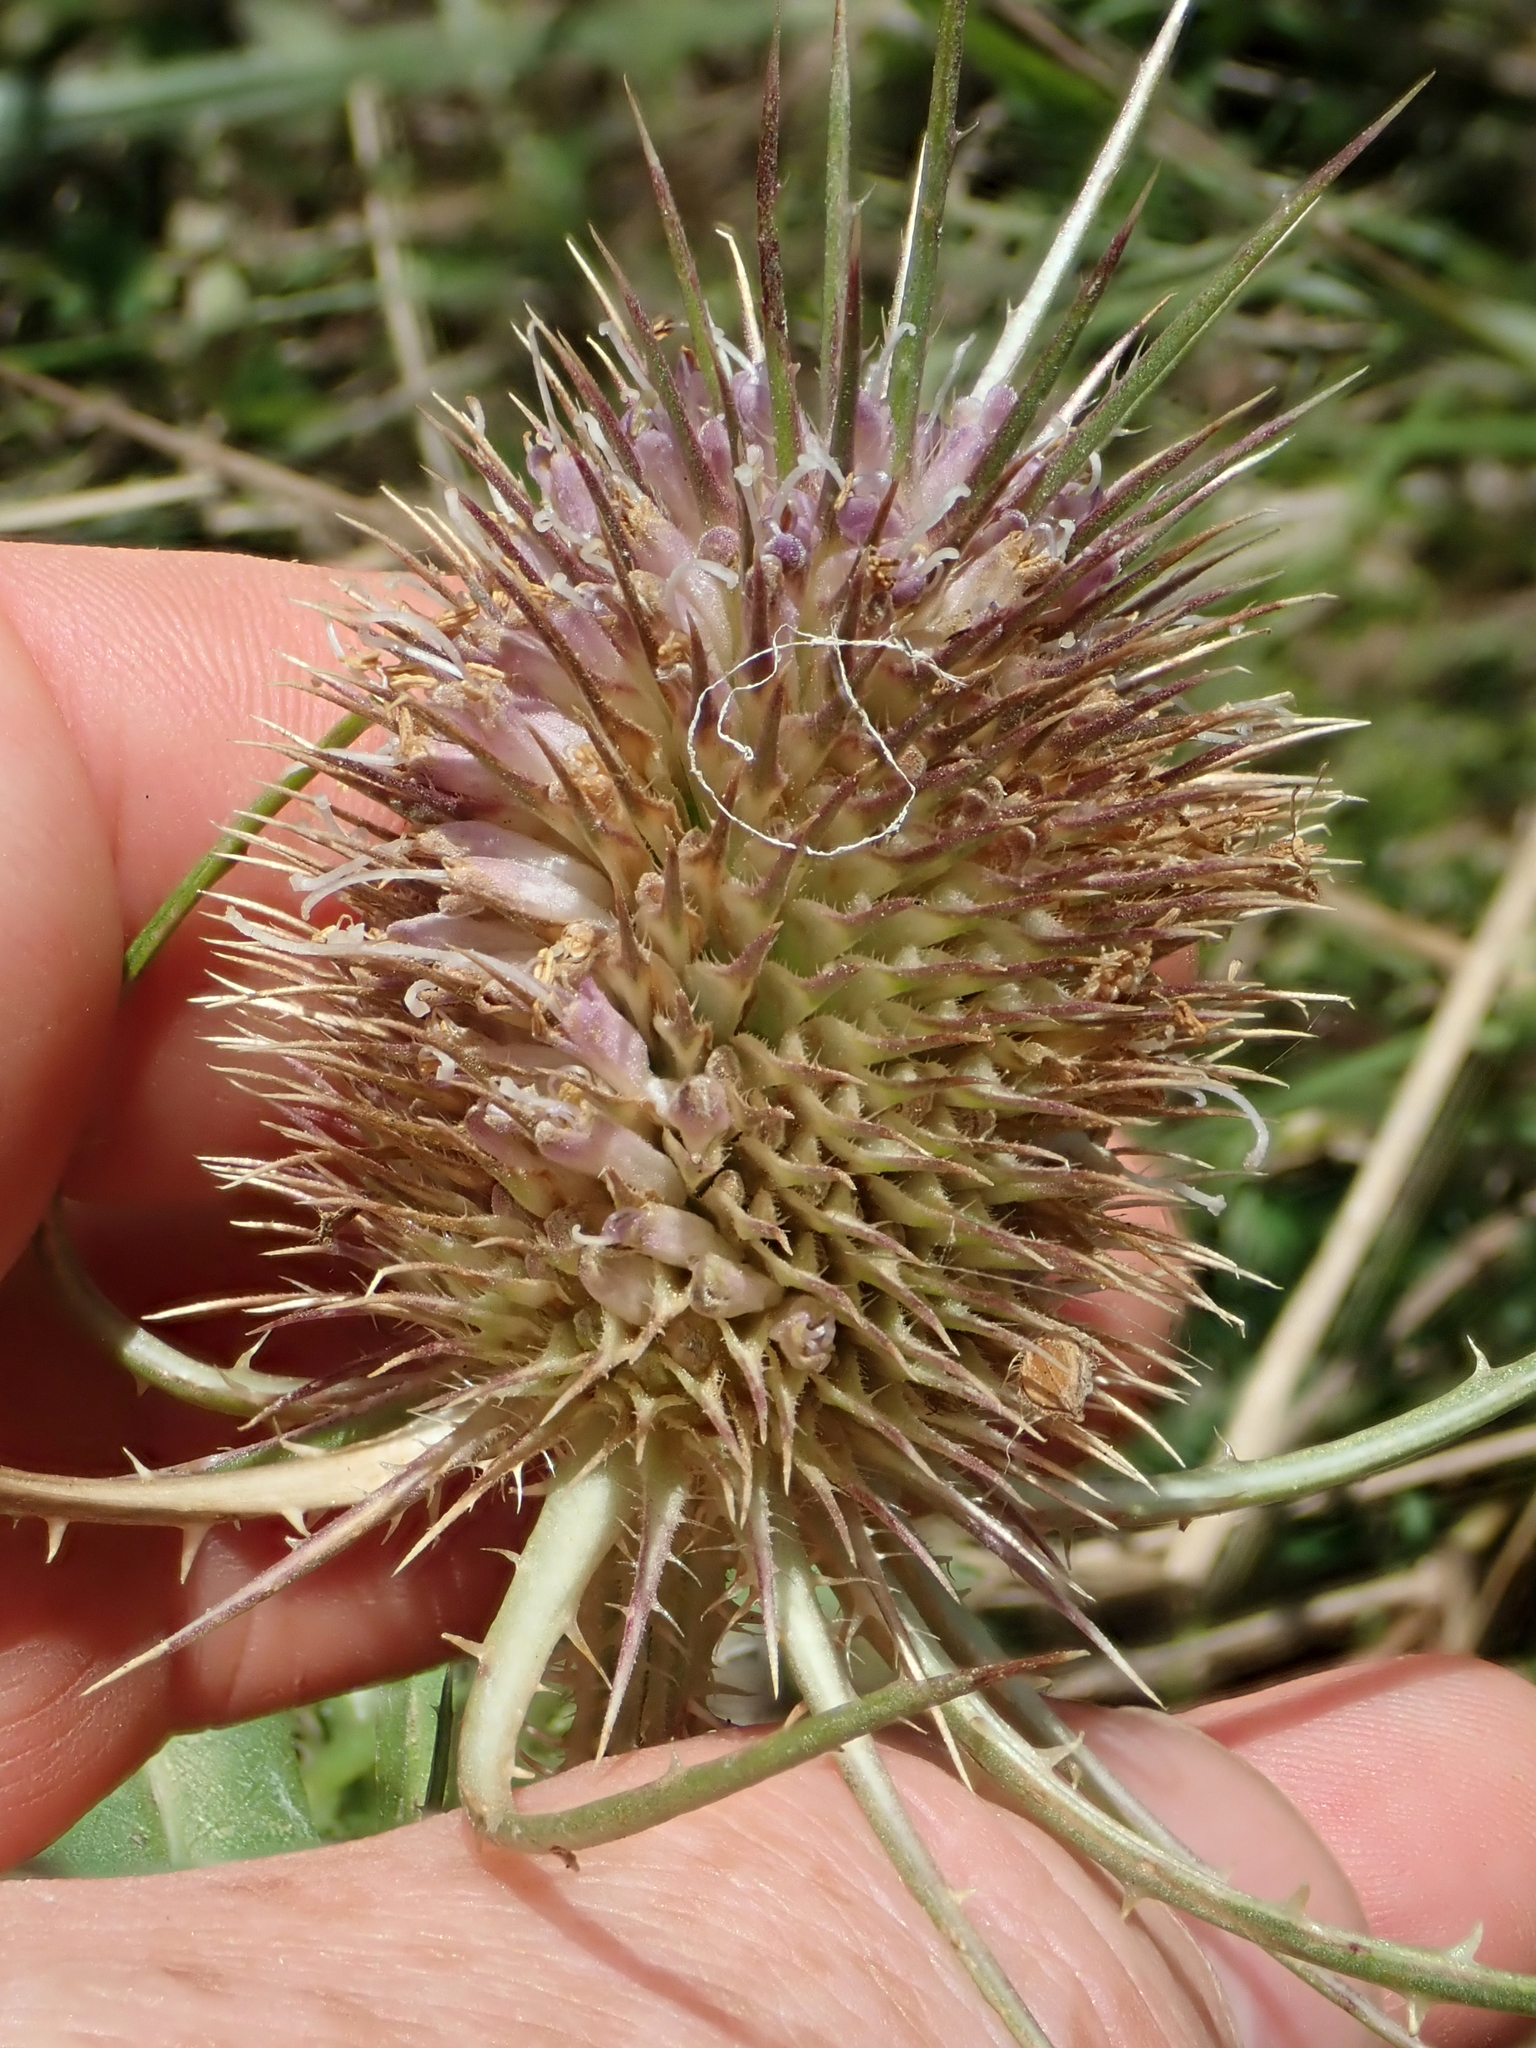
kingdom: Plantae
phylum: Tracheophyta
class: Magnoliopsida
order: Dipsacales
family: Caprifoliaceae
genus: Dipsacus
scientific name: Dipsacus fullonum
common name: Teasel
